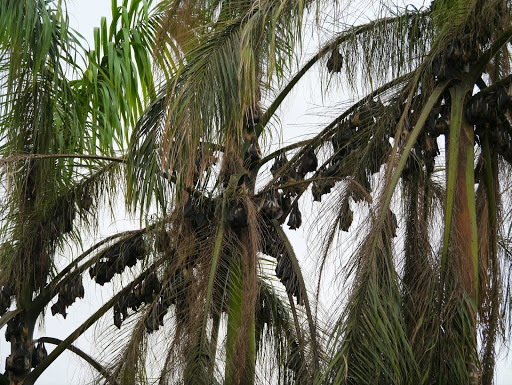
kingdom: Animalia
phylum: Chordata
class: Mammalia
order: Chiroptera
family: Pteropodidae
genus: Eidolon
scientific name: Eidolon helvum
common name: Straw-colored fruit bat
